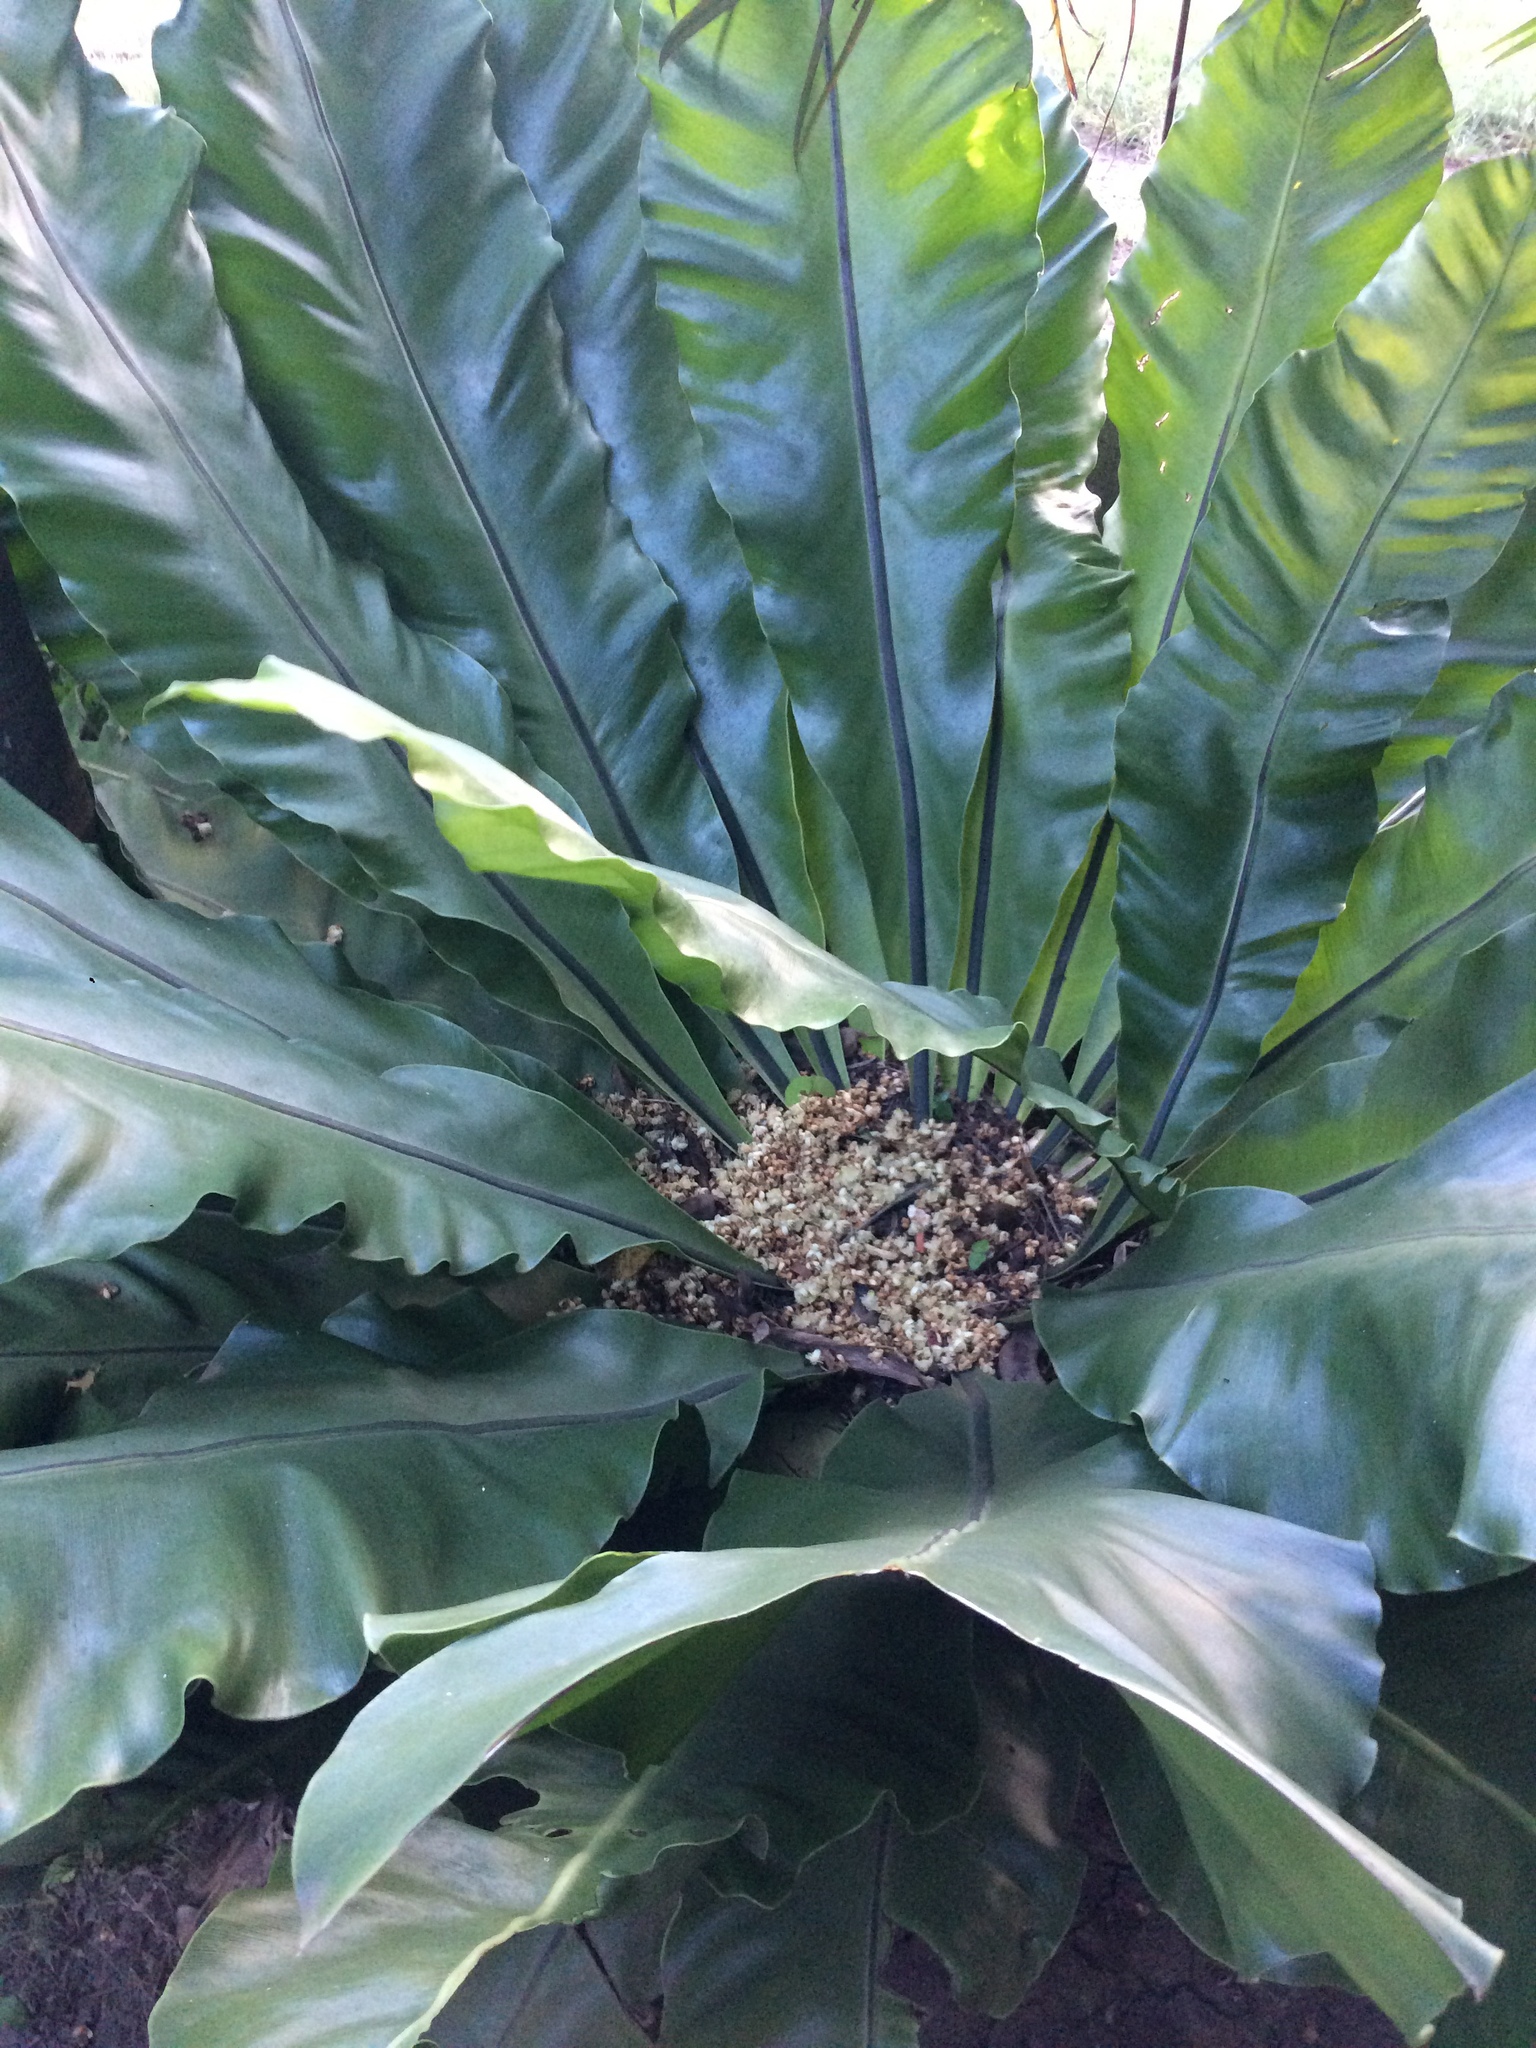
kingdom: Plantae
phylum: Tracheophyta
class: Polypodiopsida
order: Polypodiales
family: Aspleniaceae
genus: Asplenium
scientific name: Asplenium nidus
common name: Bird's-nest fern
